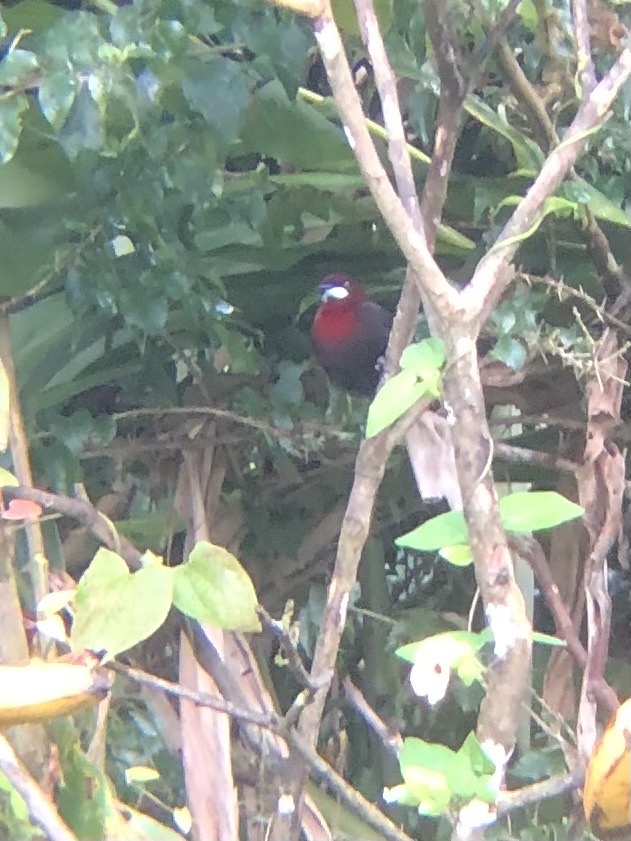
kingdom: Animalia
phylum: Chordata
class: Aves
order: Passeriformes
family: Thraupidae
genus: Ramphocelus
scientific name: Ramphocelus carbo
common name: Silver-beaked tanager
